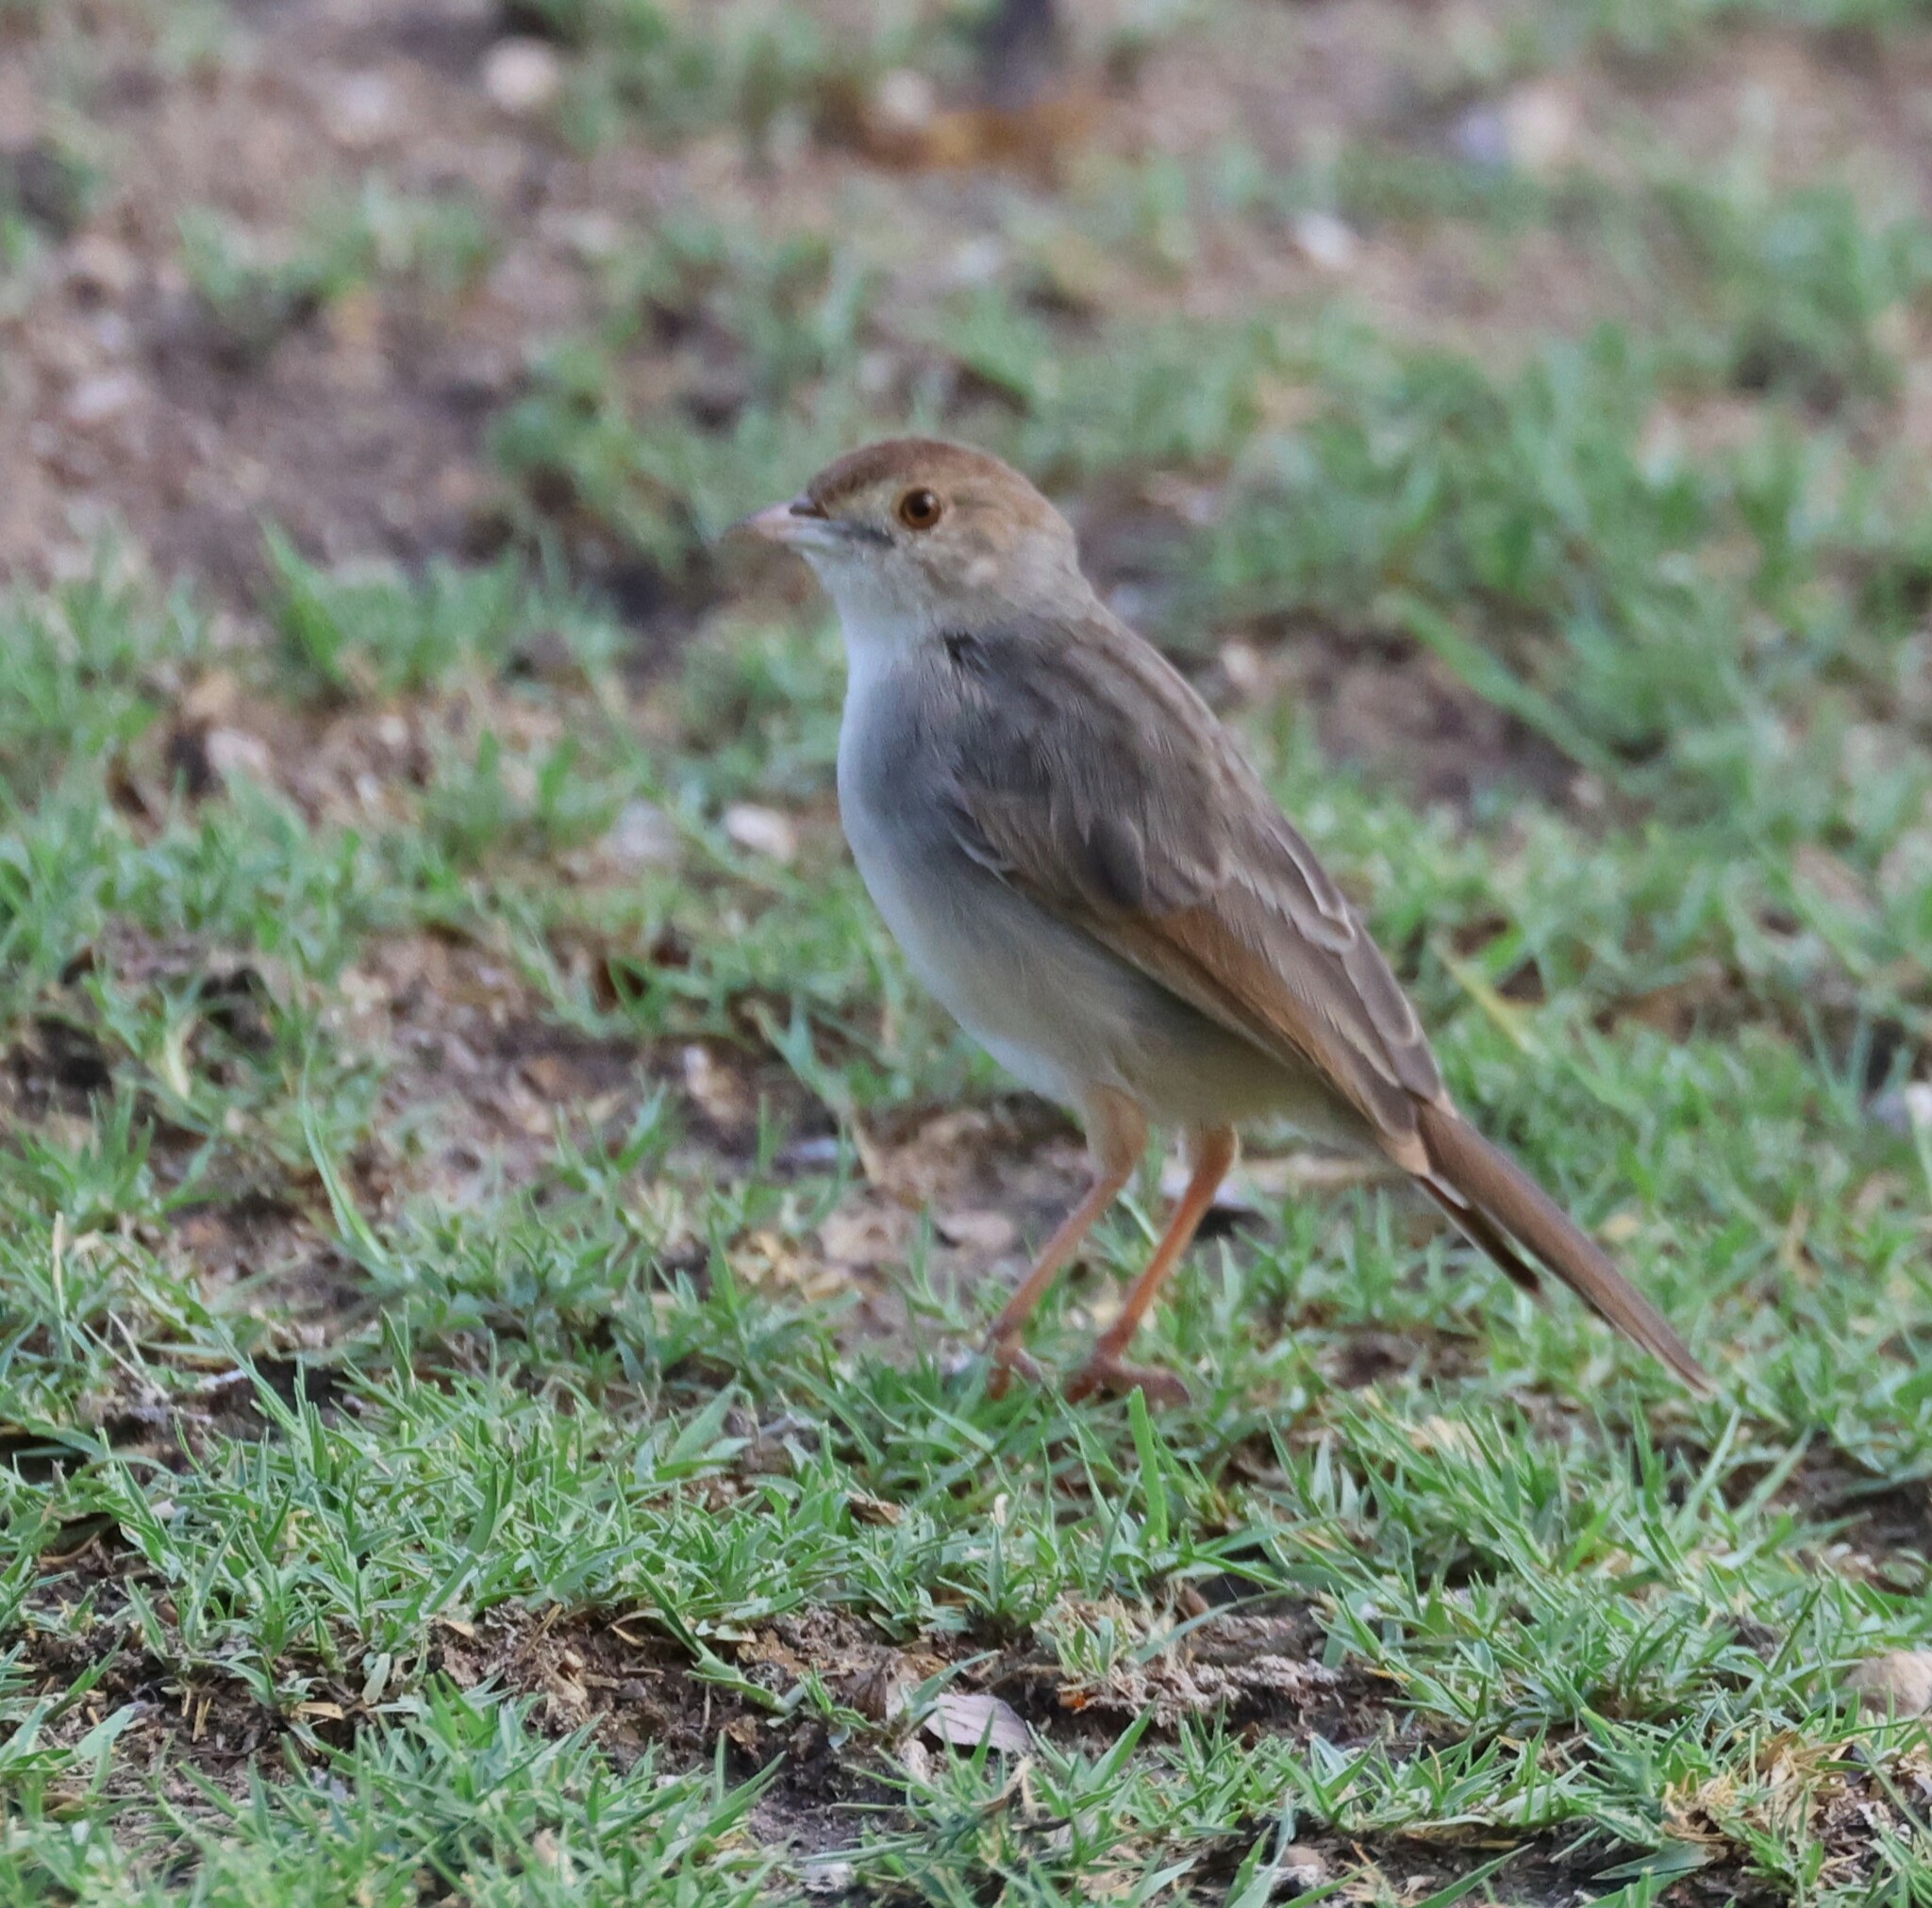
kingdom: Animalia
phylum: Chordata
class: Aves
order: Passeriformes
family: Cisticolidae
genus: Cisticola
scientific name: Cisticola chiniana
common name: Rattling cisticola
